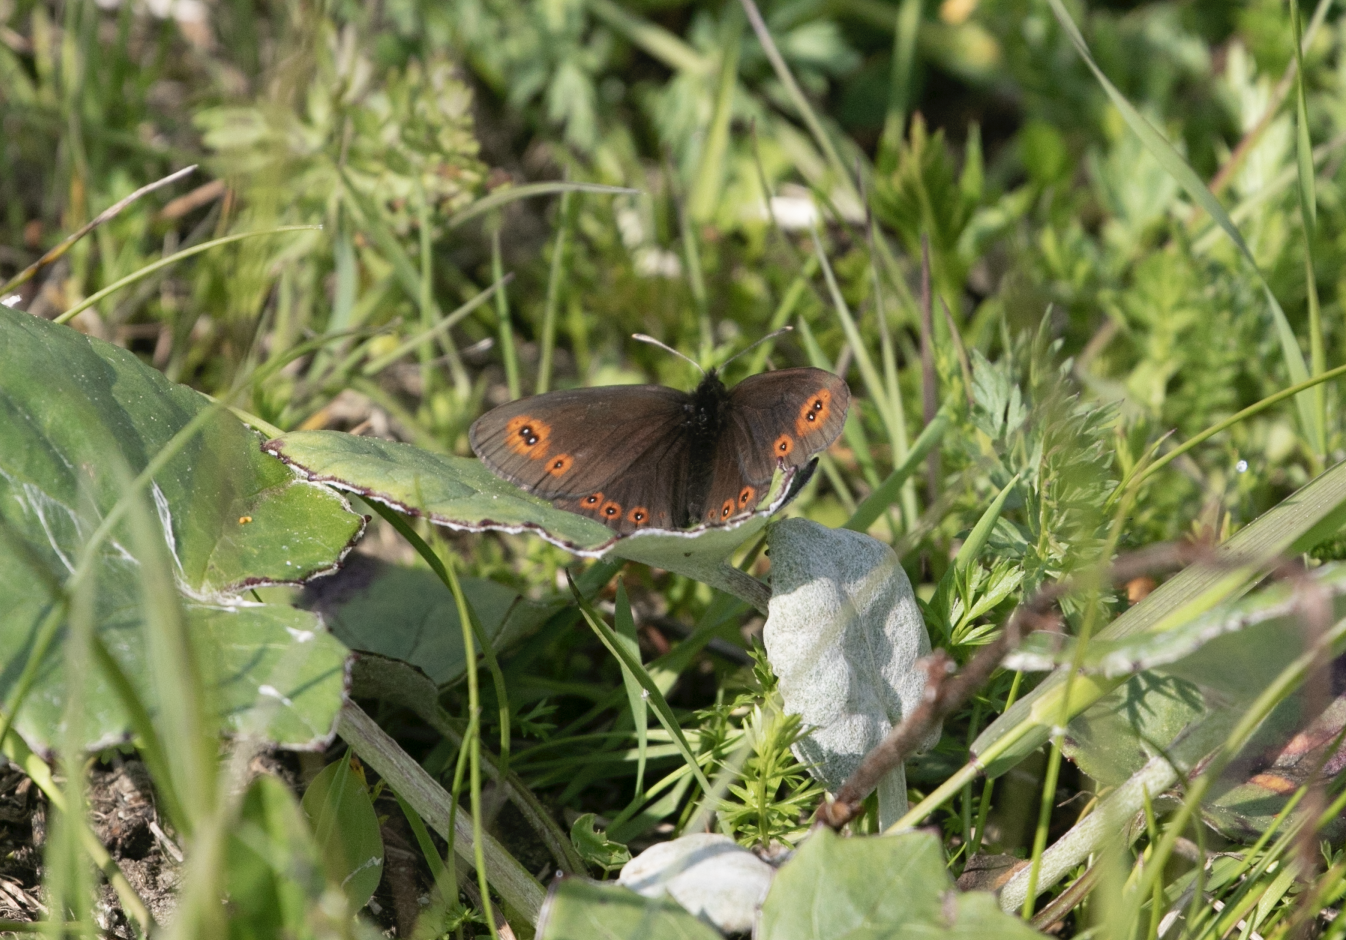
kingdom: Animalia
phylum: Arthropoda
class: Insecta
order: Lepidoptera
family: Nymphalidae
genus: Erebia
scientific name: Erebia medusa
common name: Woodland ringlet
